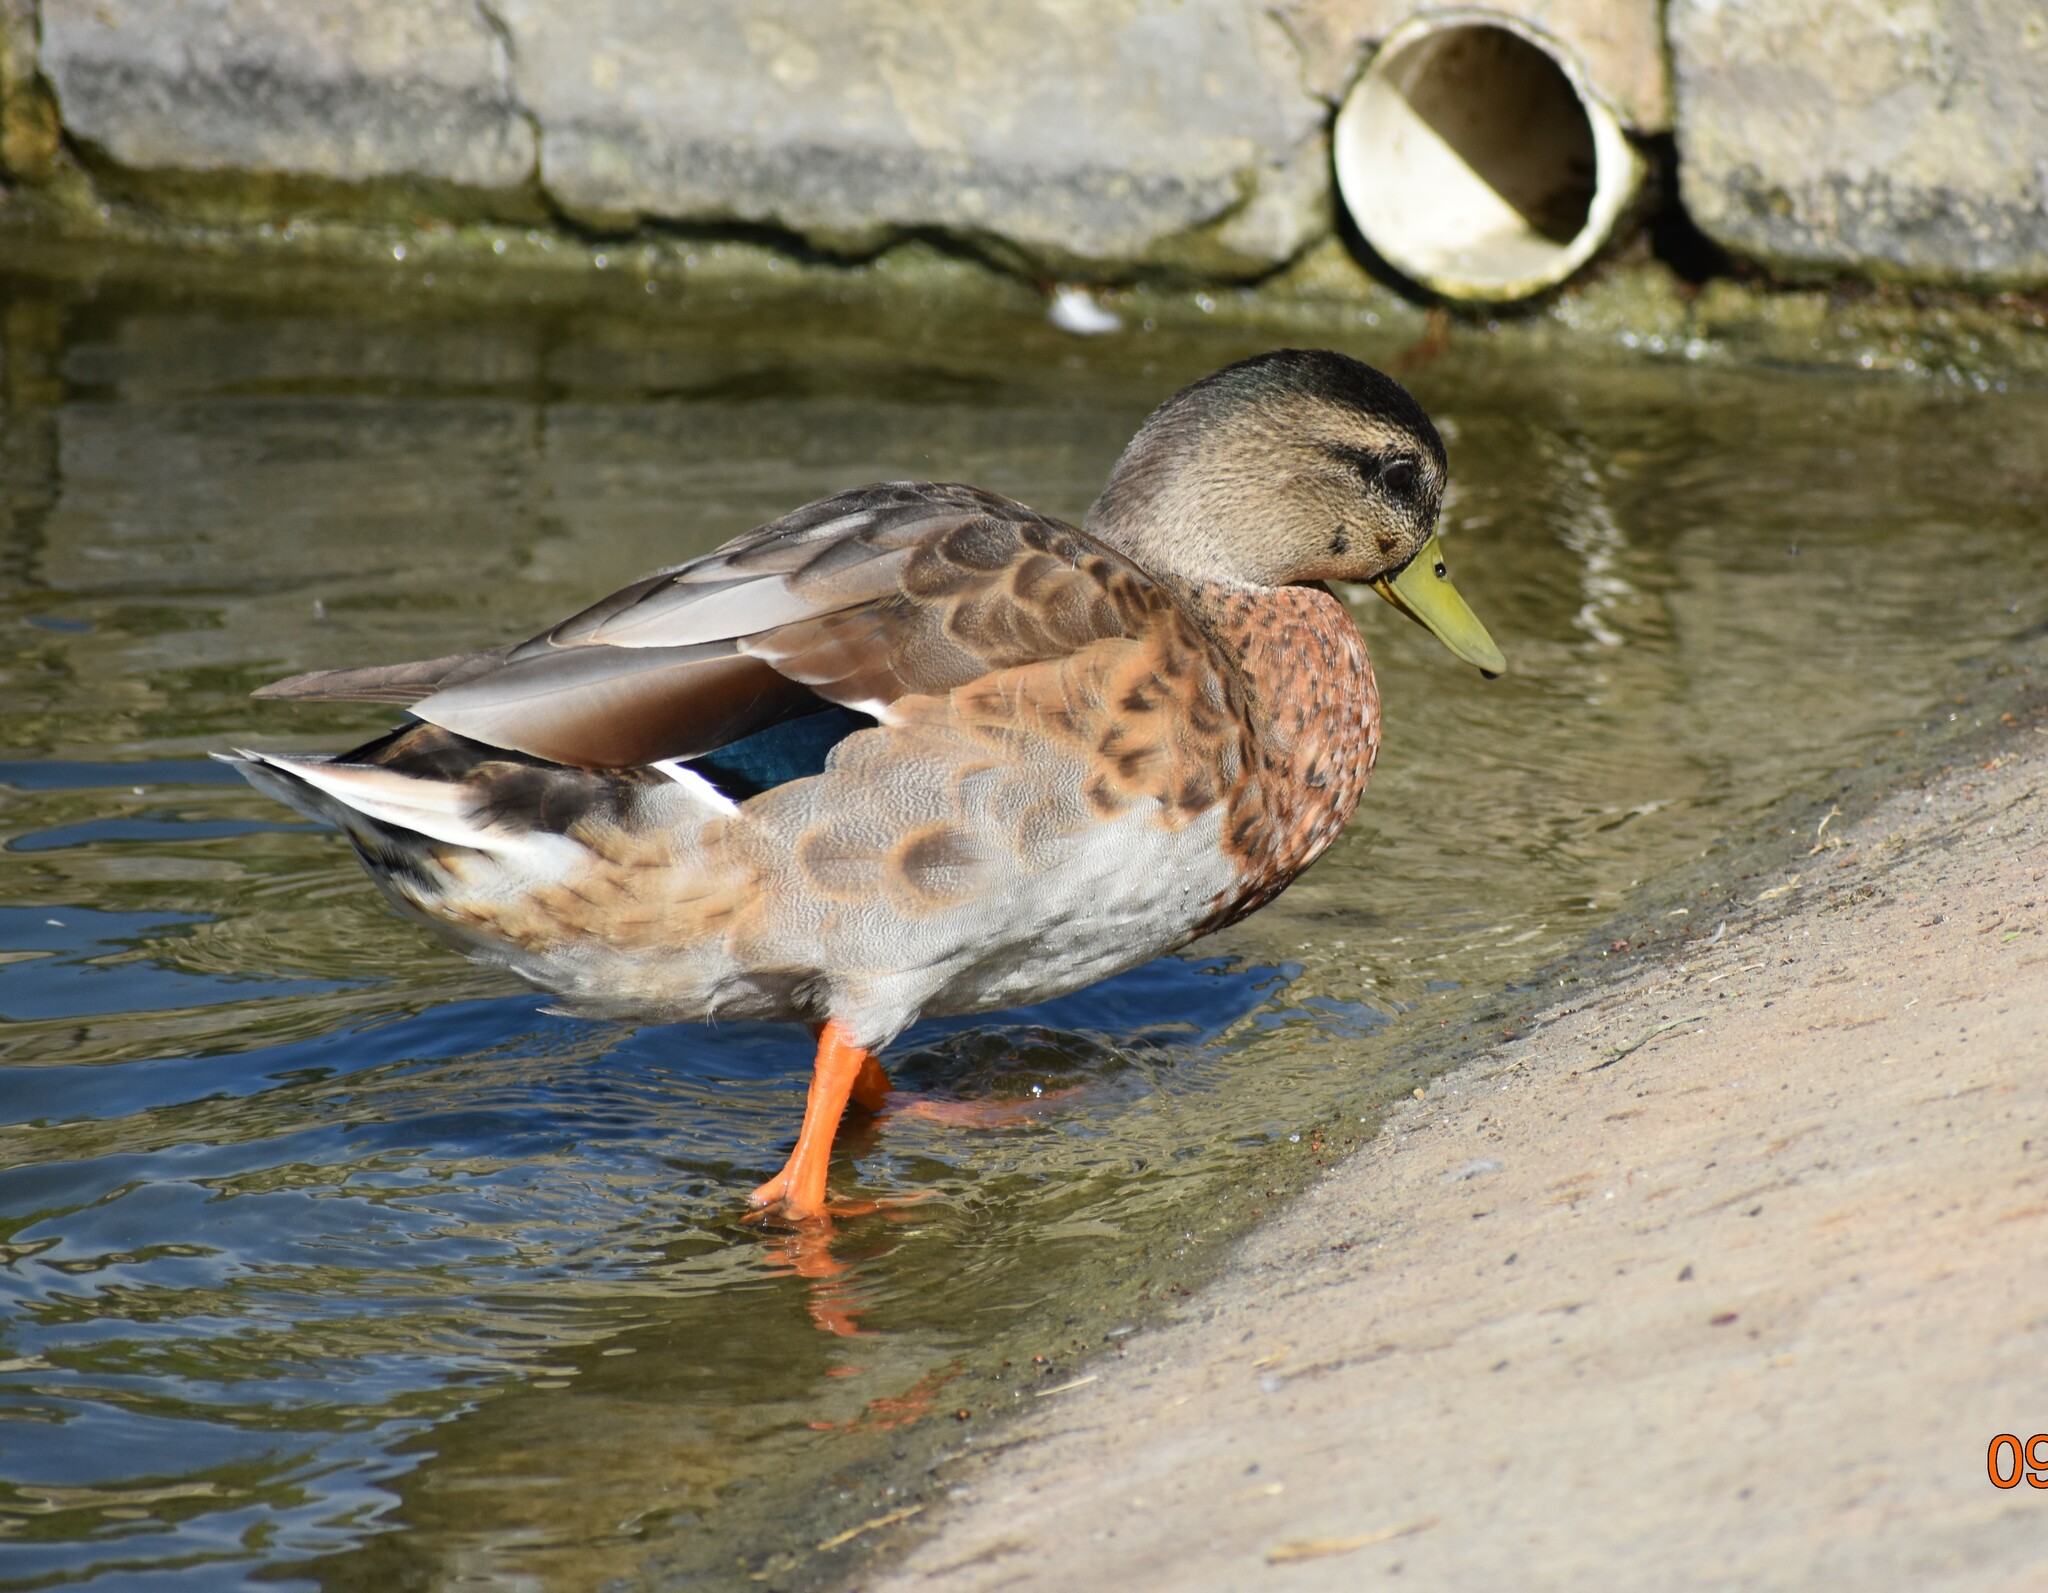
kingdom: Animalia
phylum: Chordata
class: Aves
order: Anseriformes
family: Anatidae
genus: Anas
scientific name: Anas platyrhynchos
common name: Mallard
